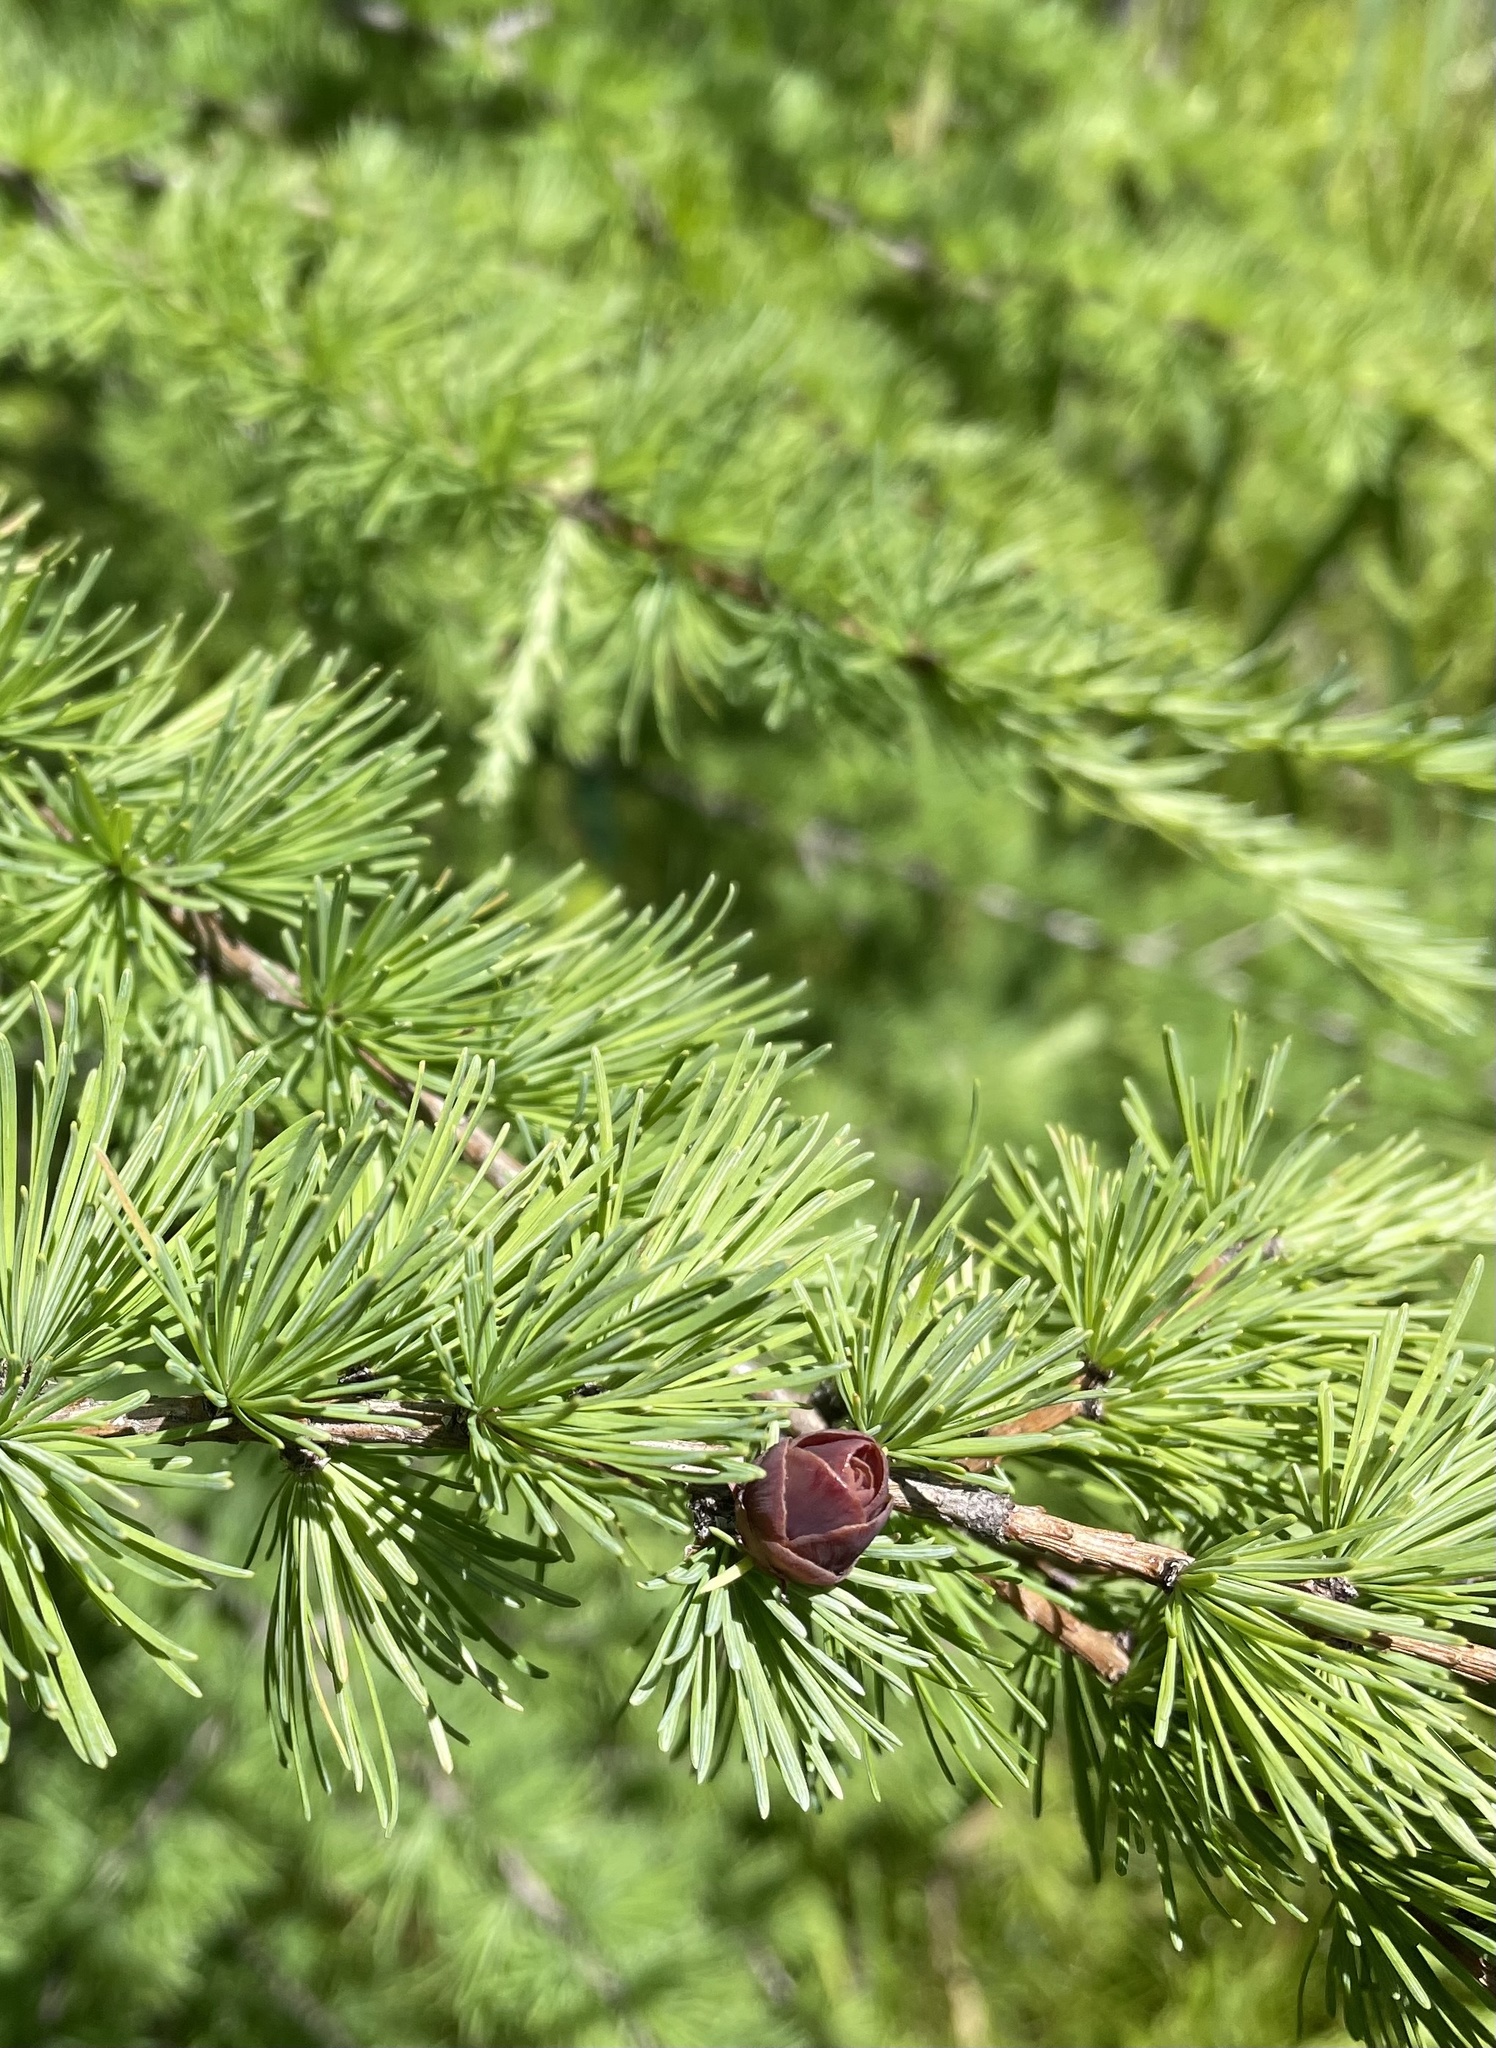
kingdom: Plantae
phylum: Tracheophyta
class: Pinopsida
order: Pinales
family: Pinaceae
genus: Larix
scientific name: Larix laricina
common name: American larch
